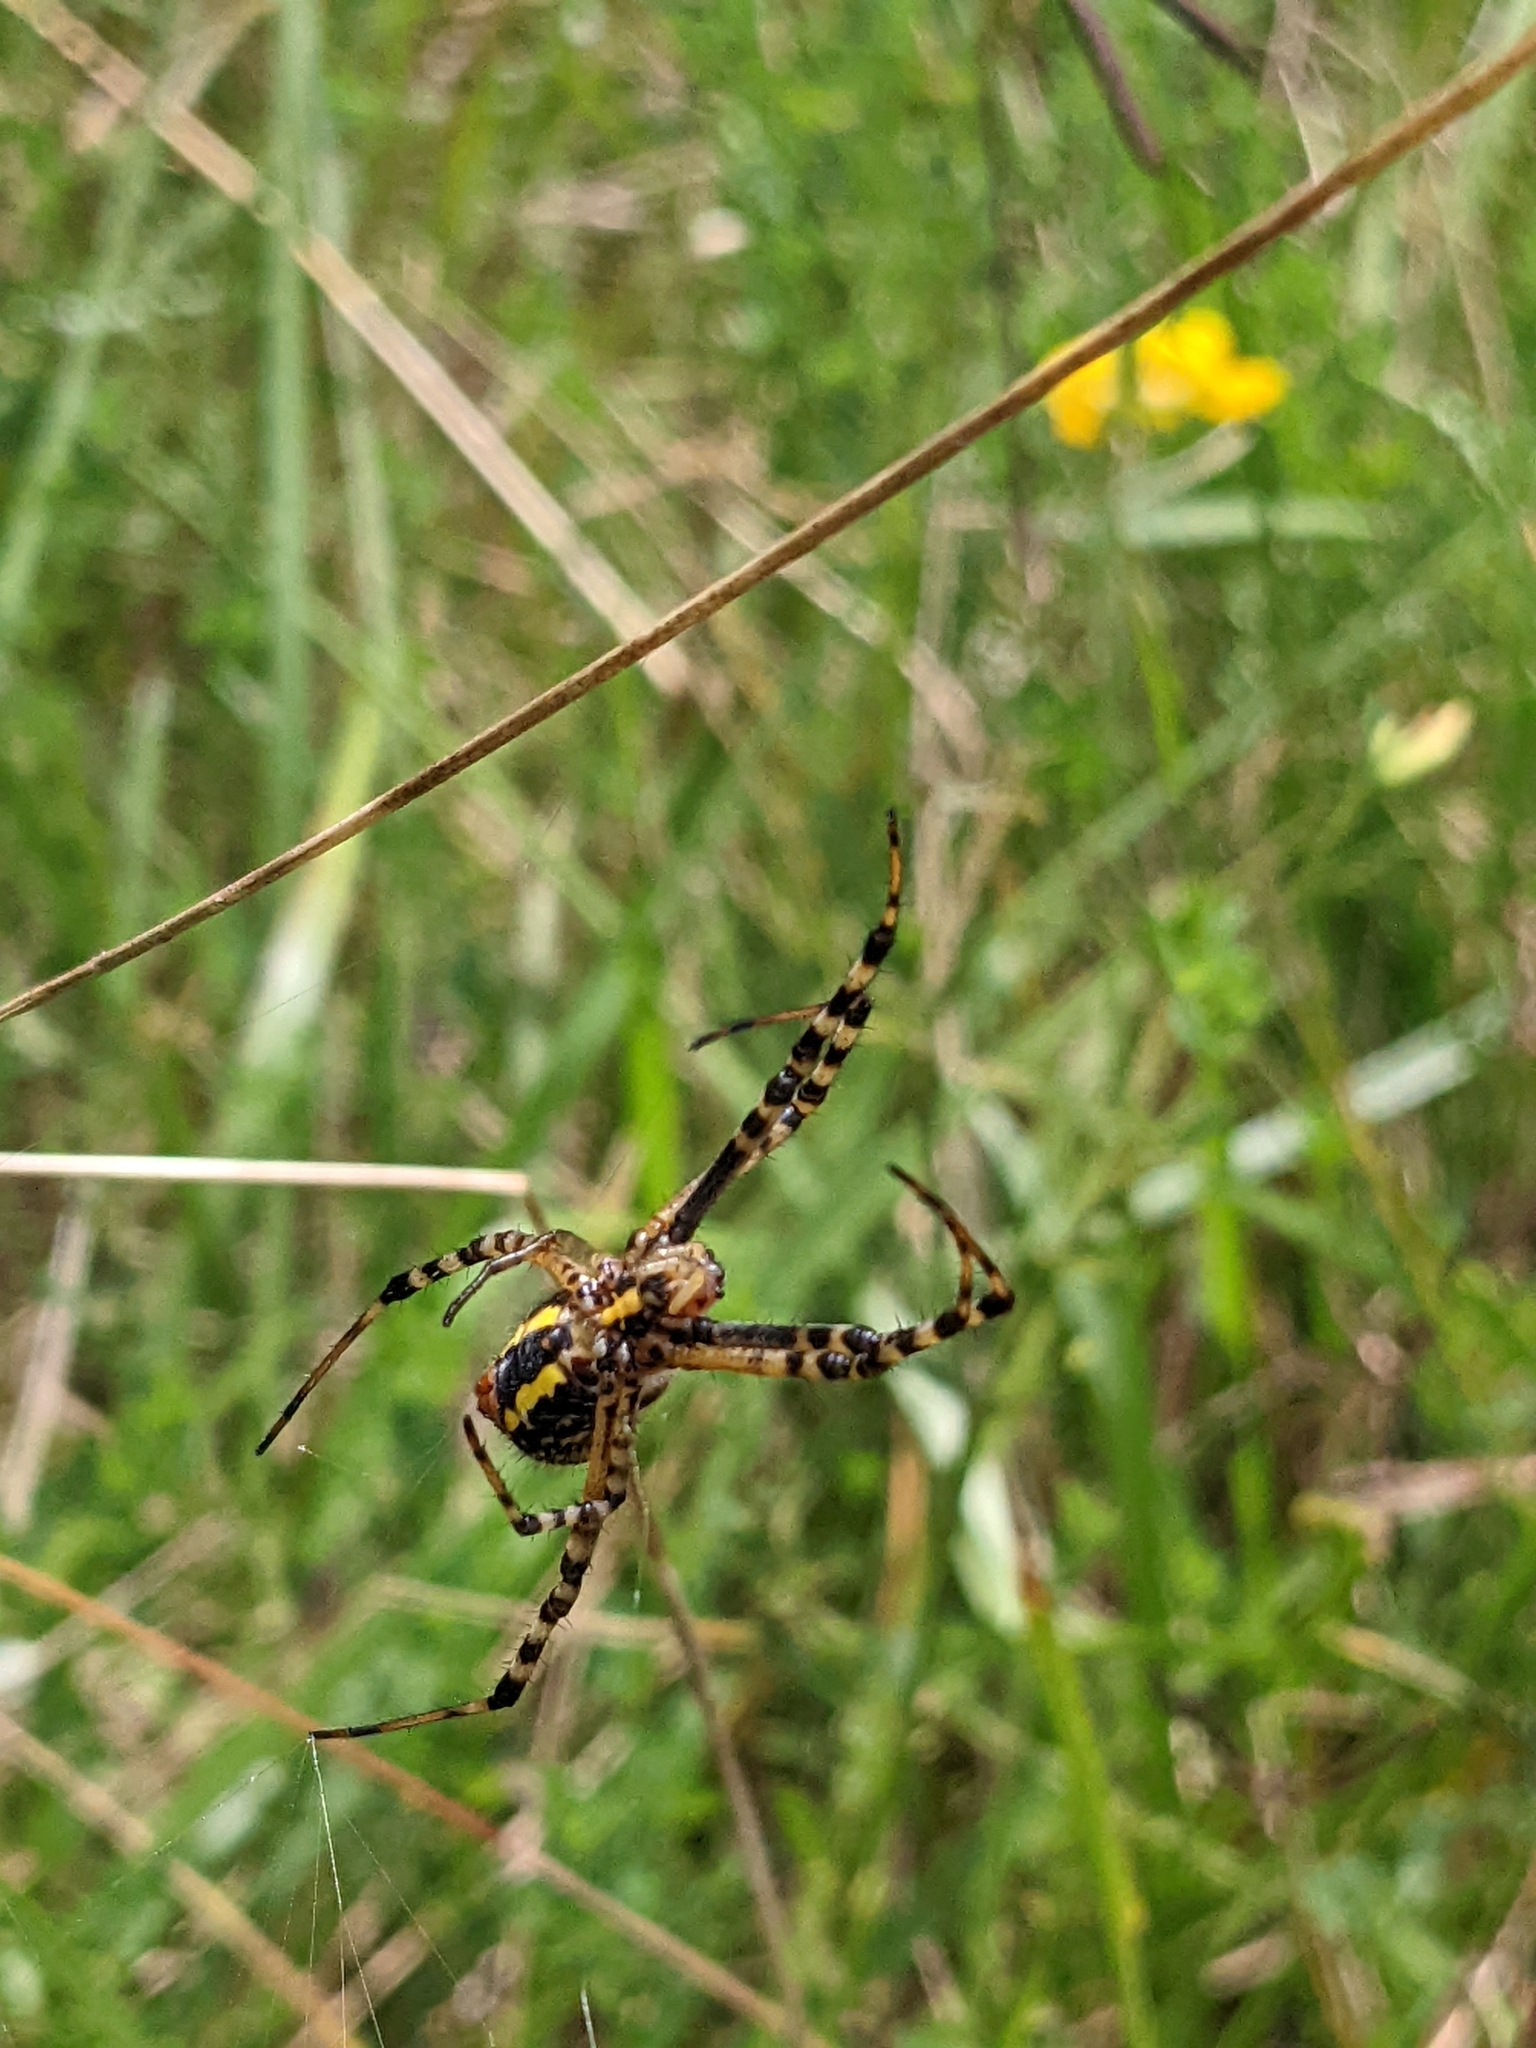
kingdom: Animalia
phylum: Arthropoda
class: Arachnida
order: Araneae
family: Araneidae
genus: Argiope
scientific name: Argiope trifasciata
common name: Banded garden spider
